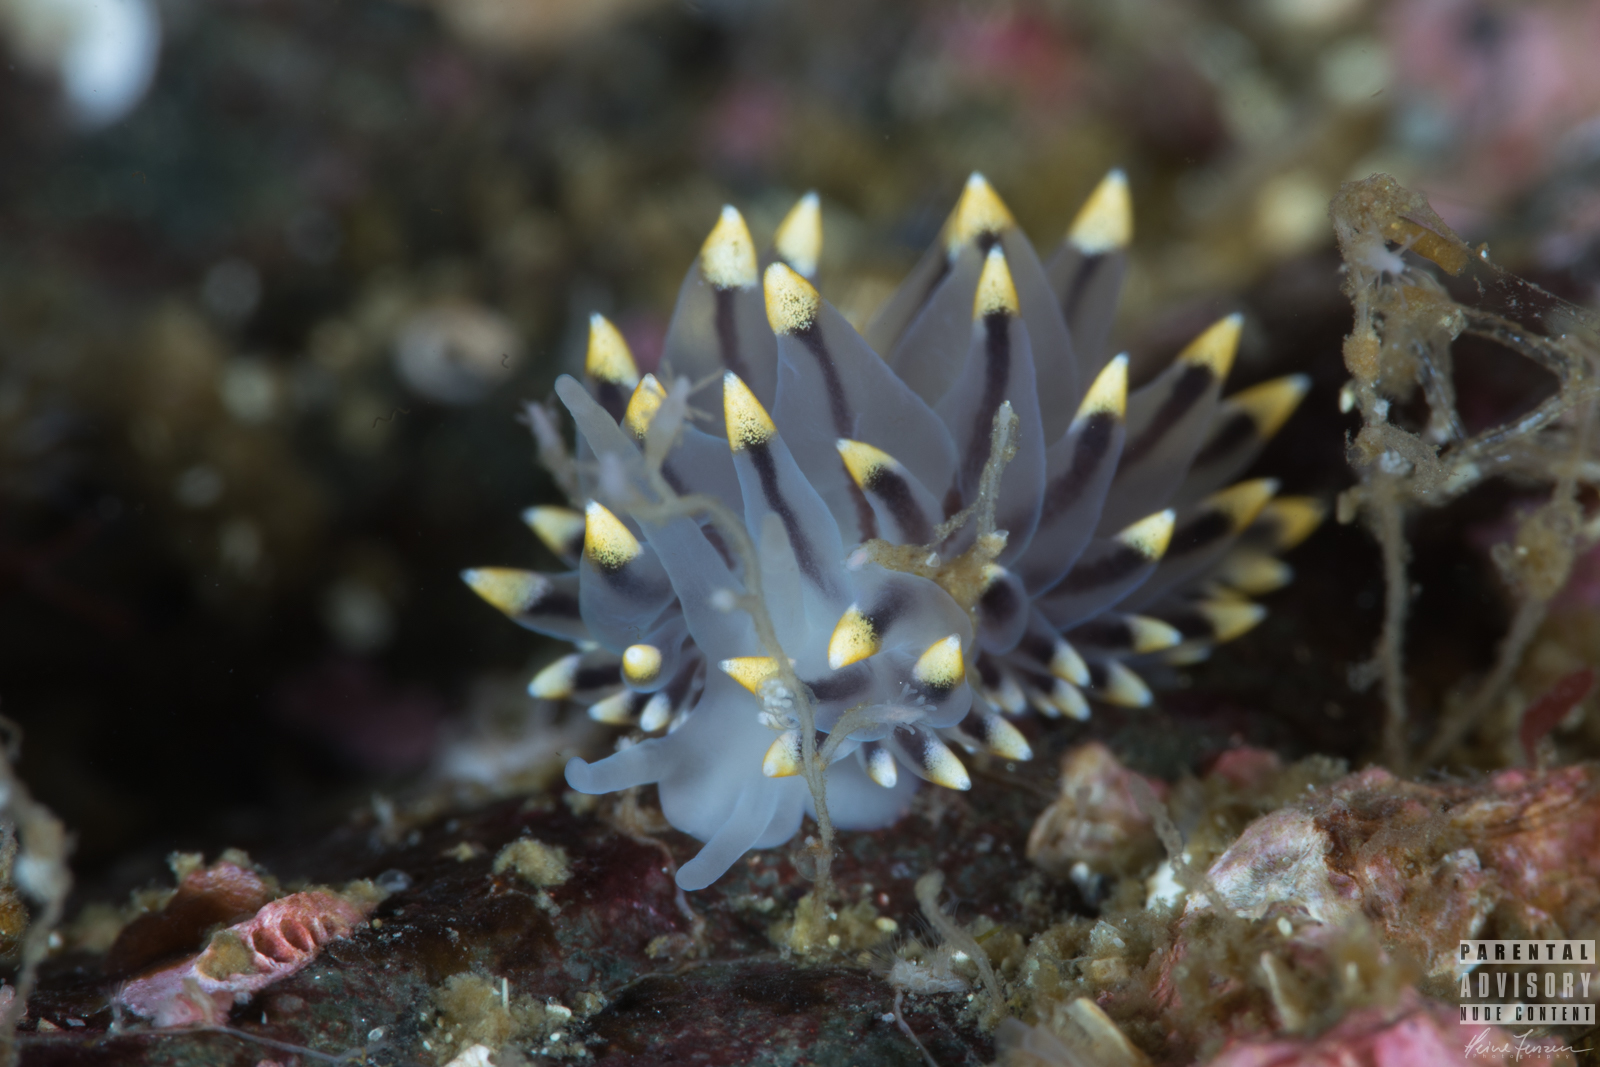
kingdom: Animalia
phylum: Mollusca
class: Gastropoda
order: Nudibranchia
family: Eubranchidae
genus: Eubranchus
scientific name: Eubranchus tricolor
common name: Painted balloon aeolis
